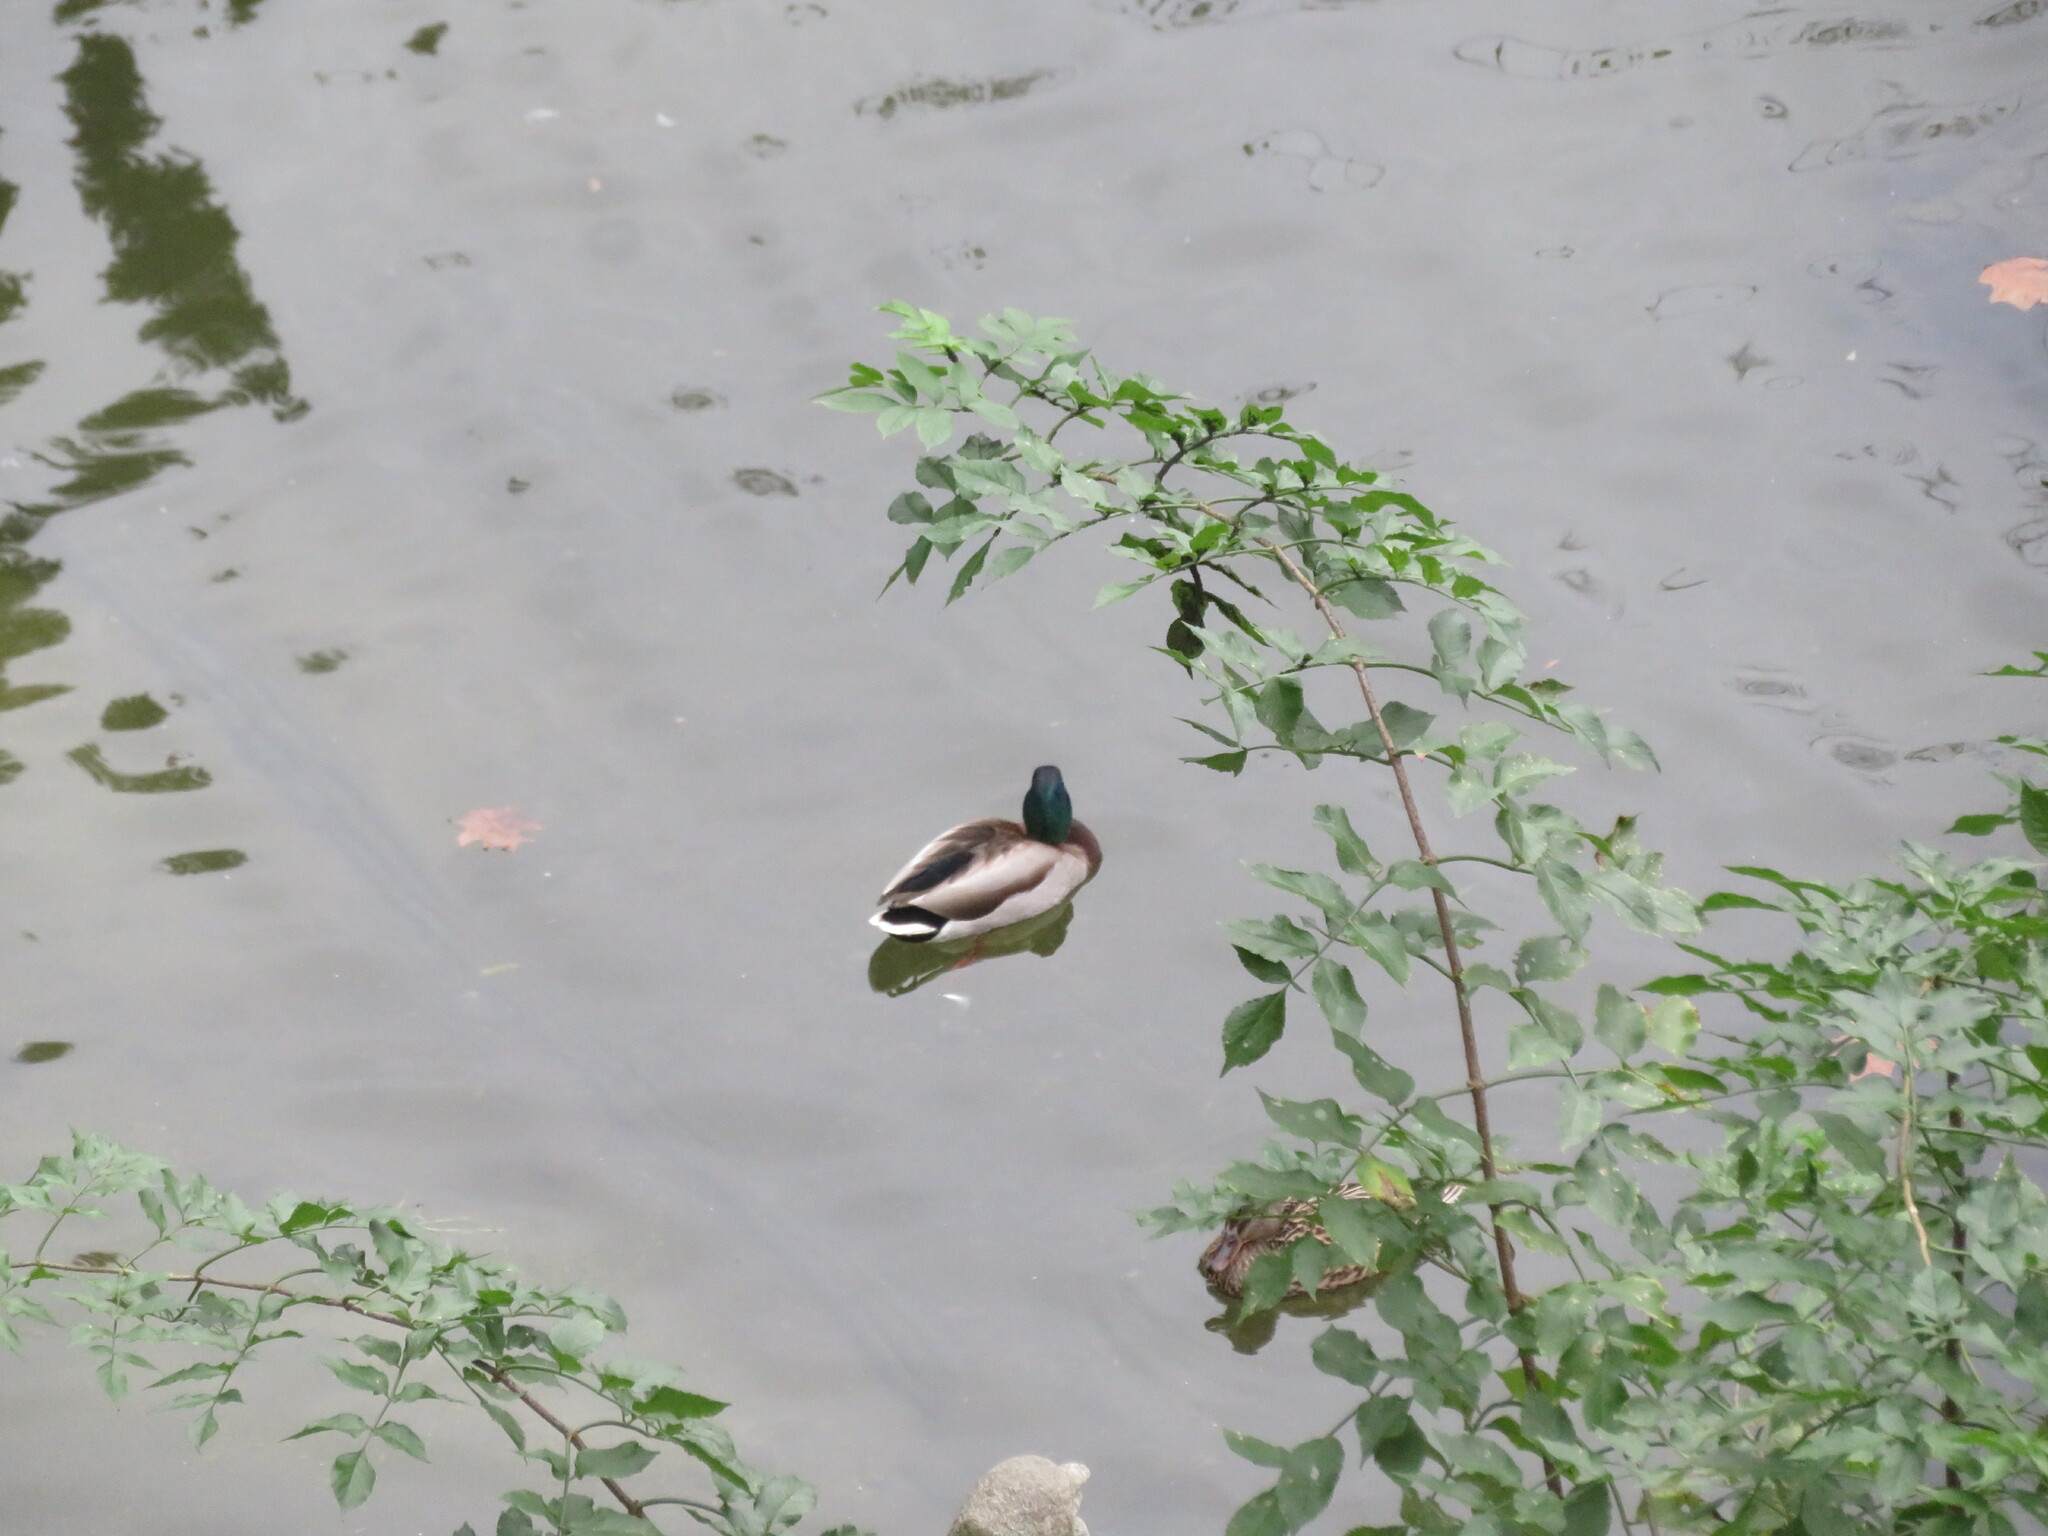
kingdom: Animalia
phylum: Chordata
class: Aves
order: Anseriformes
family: Anatidae
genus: Anas
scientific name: Anas platyrhynchos
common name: Mallard
